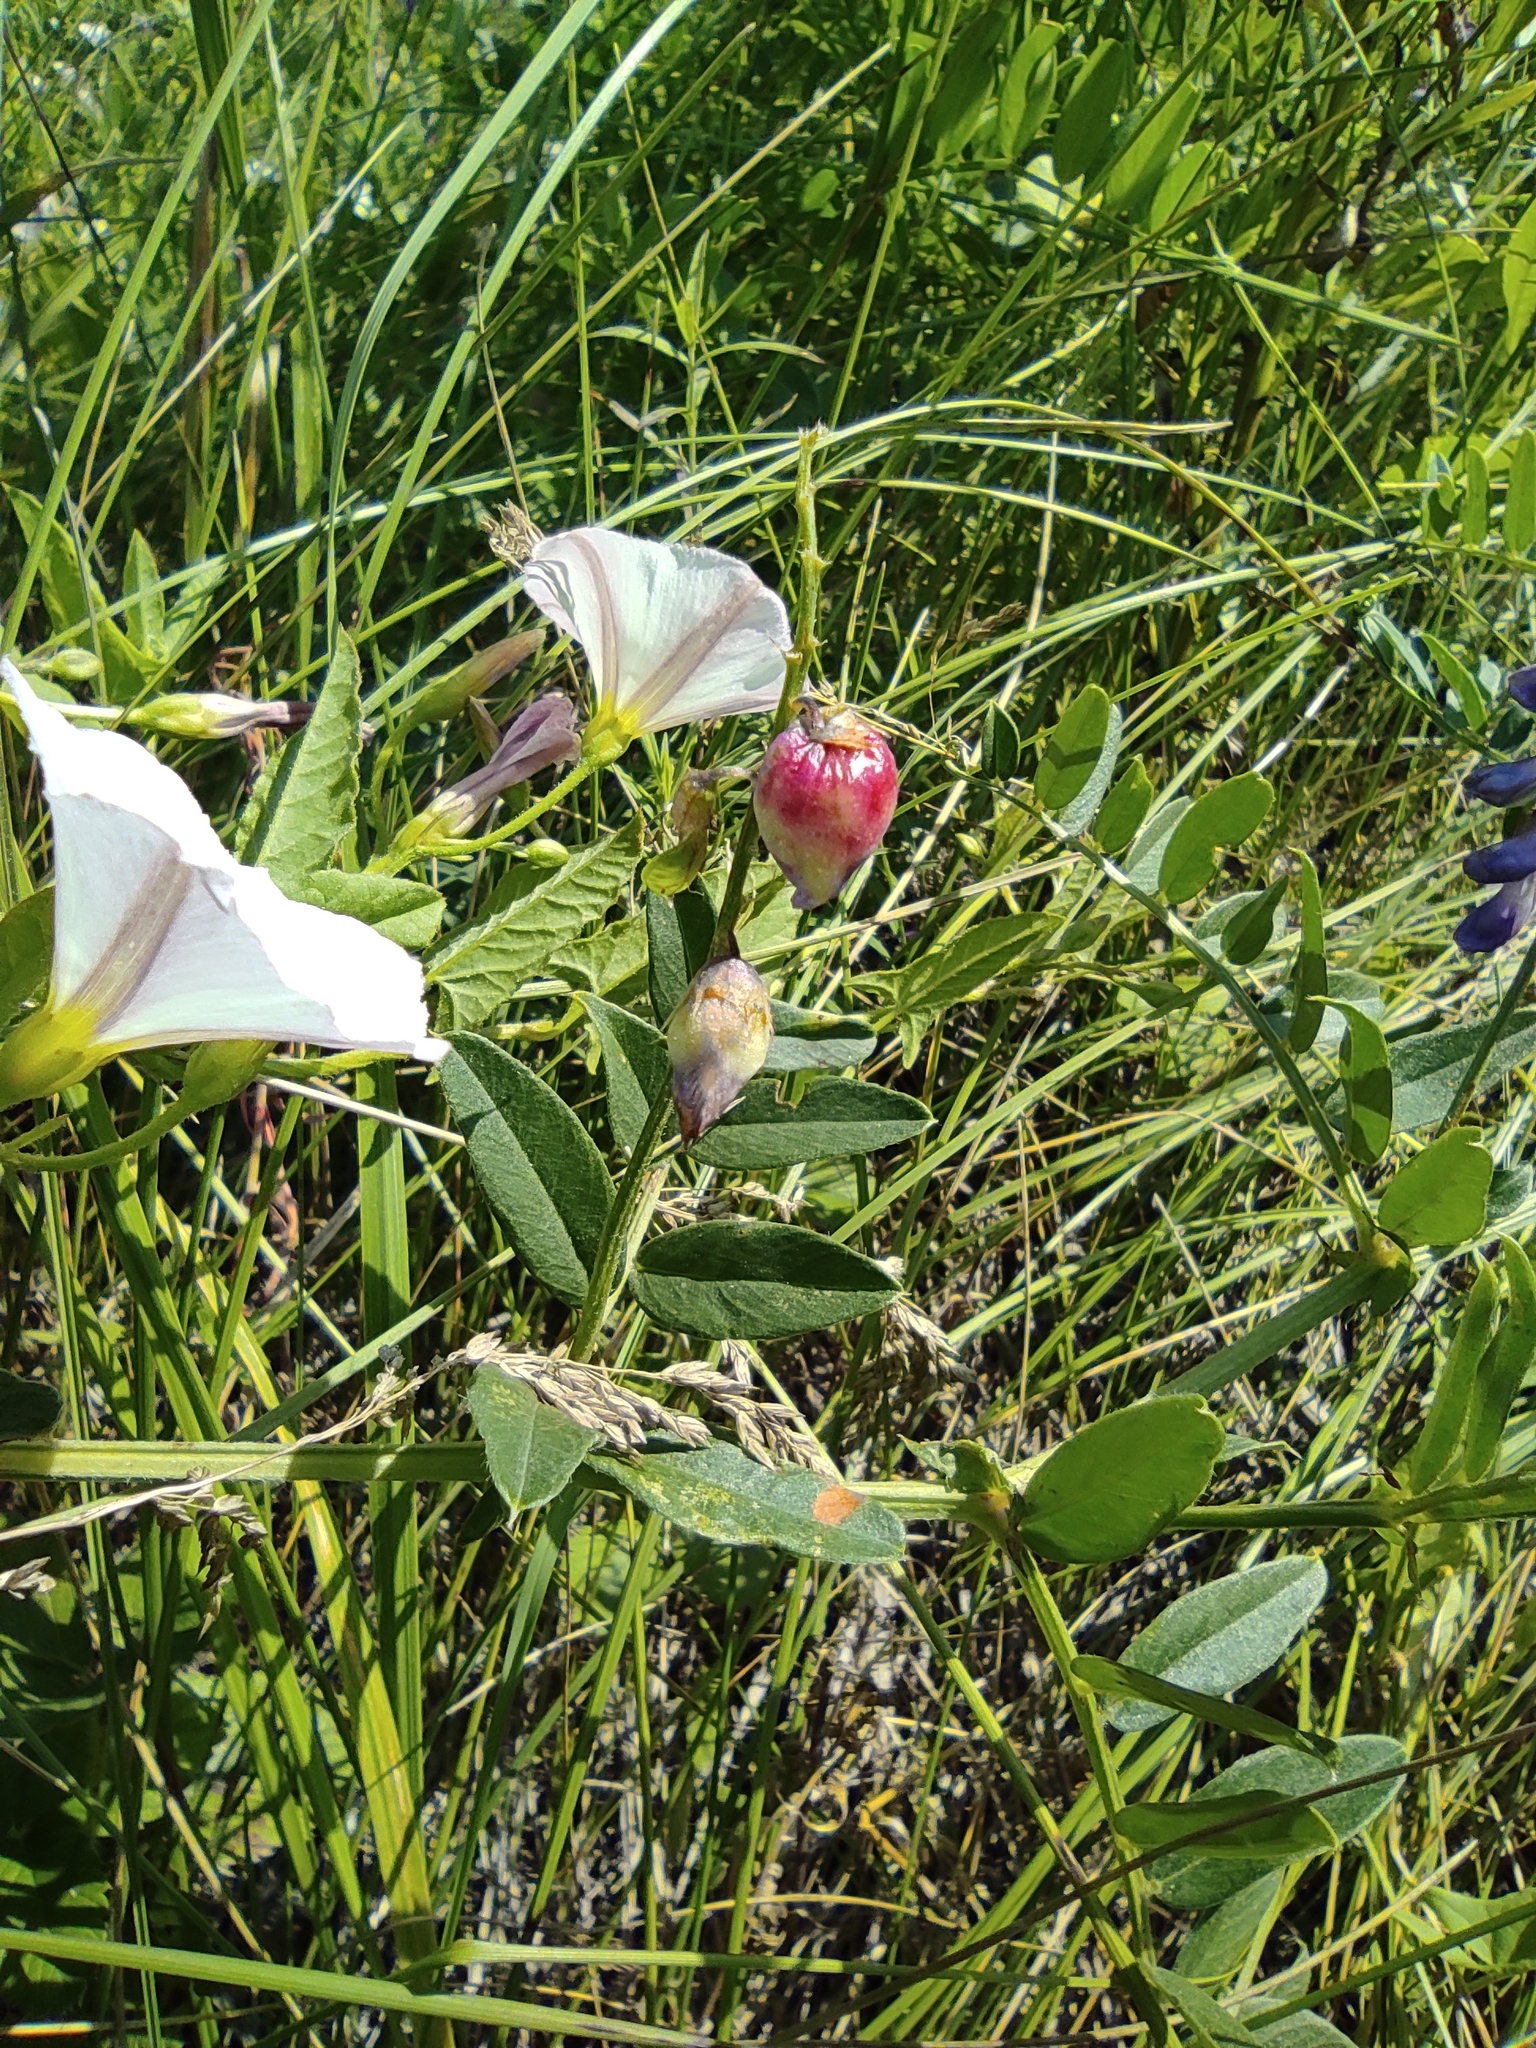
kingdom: Plantae
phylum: Tracheophyta
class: Magnoliopsida
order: Solanales
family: Convolvulaceae
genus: Convolvulus
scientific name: Convolvulus arvensis
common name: Field bindweed
